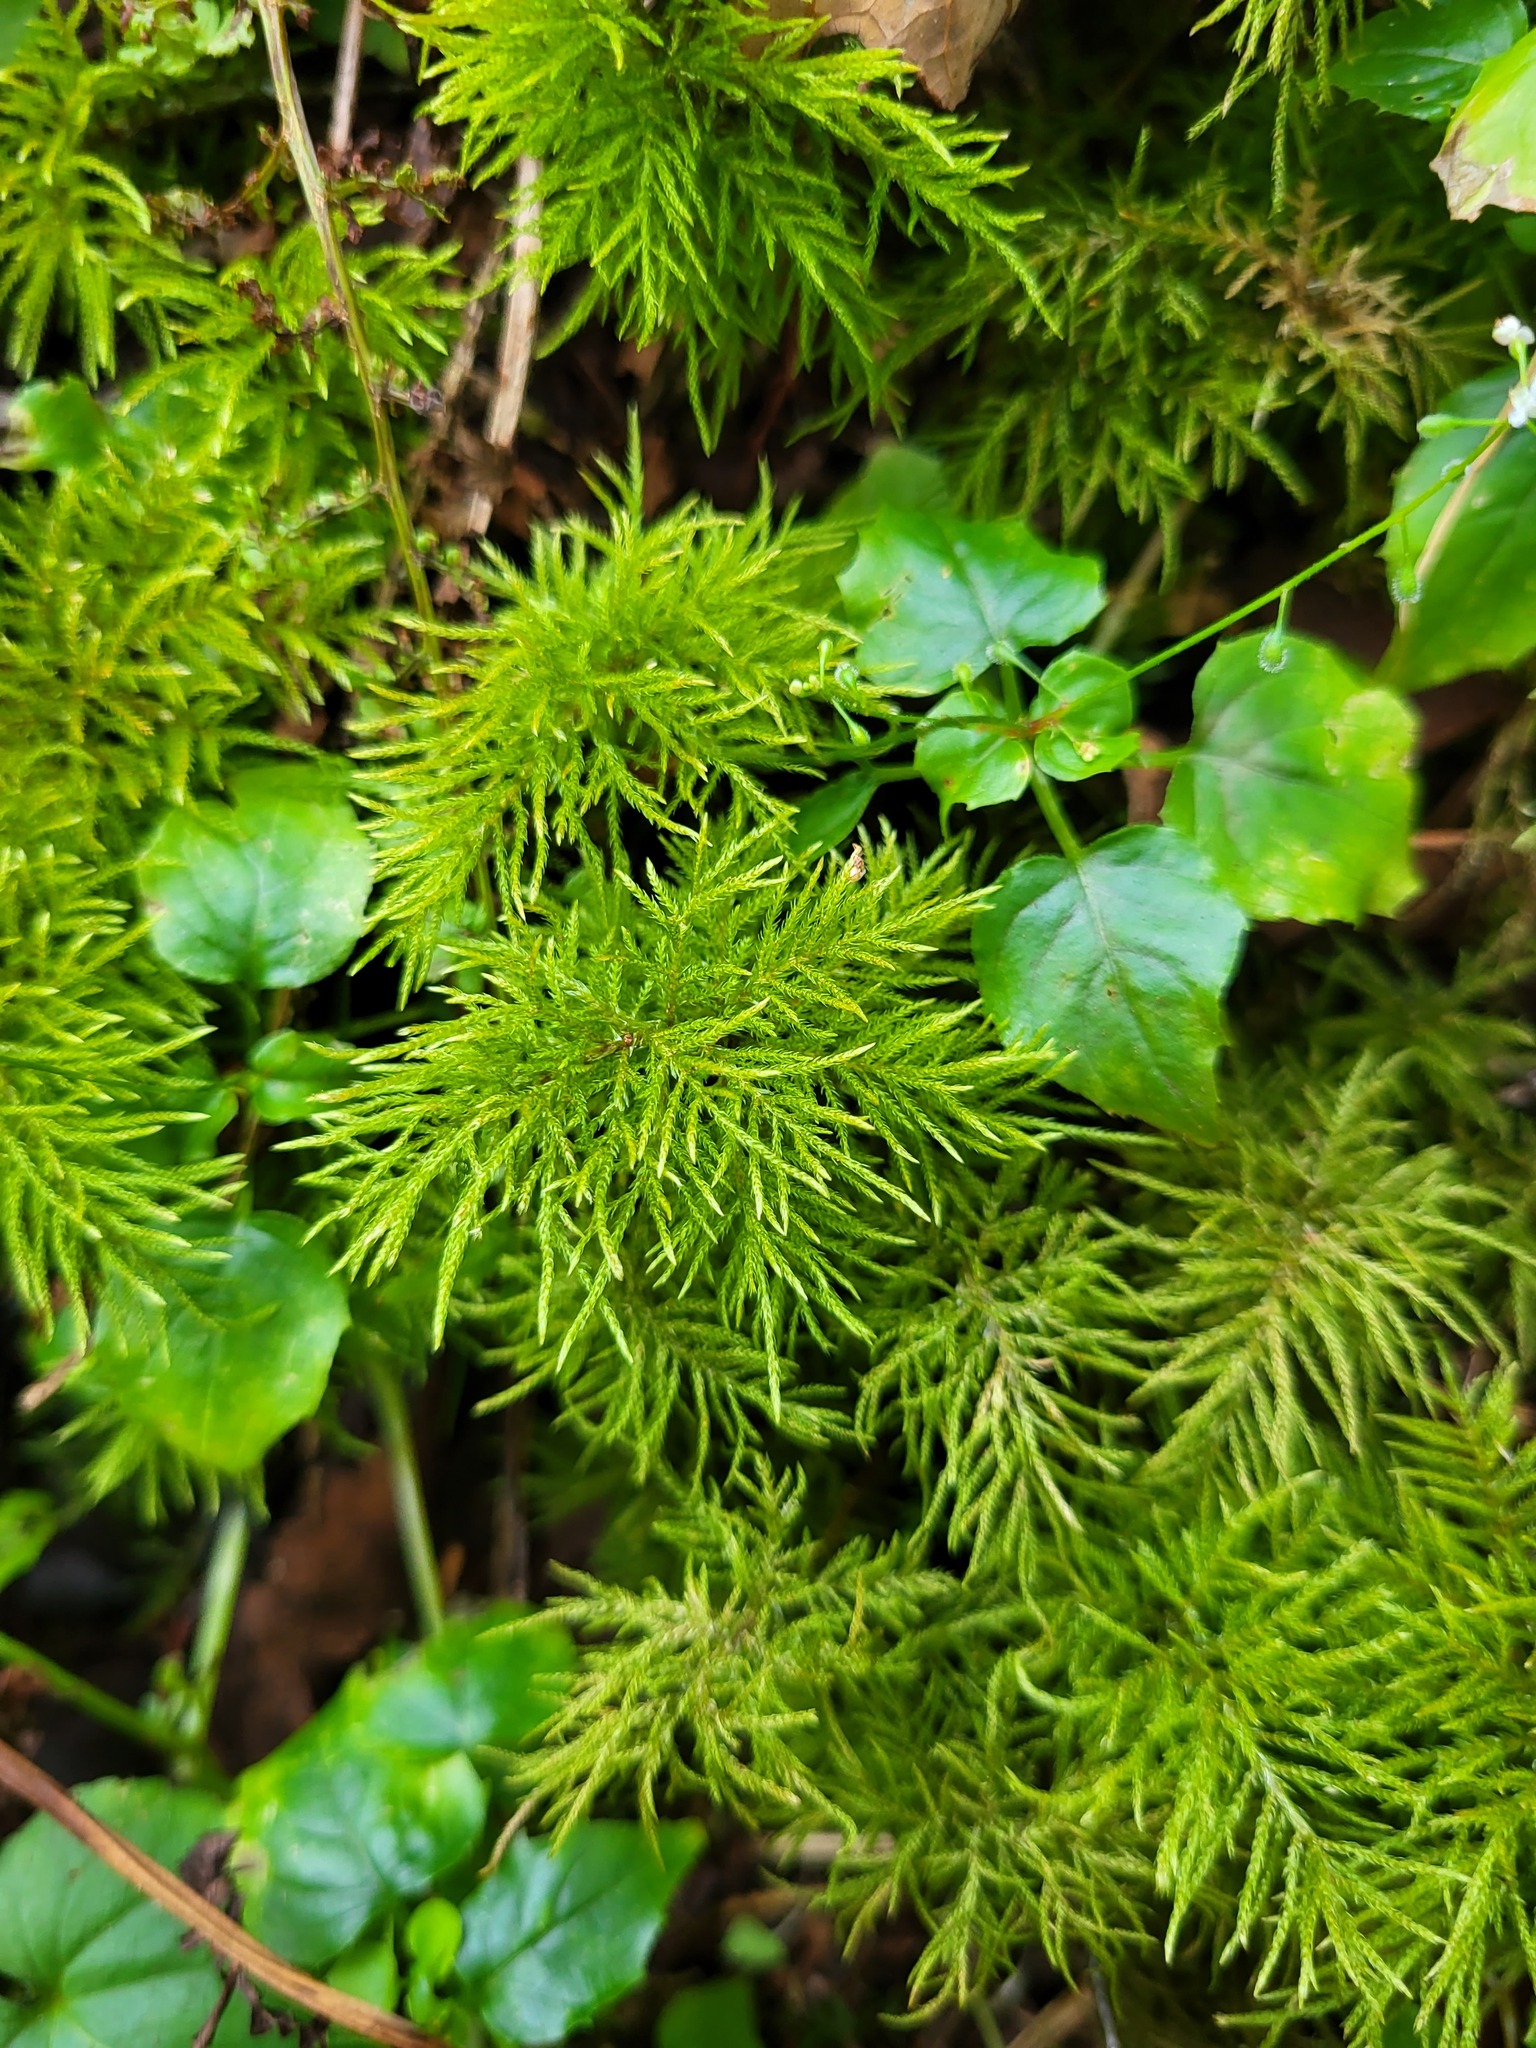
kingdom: Plantae
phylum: Bryophyta
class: Bryopsida
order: Hypnales
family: Climaciaceae
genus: Pleuroziopsis
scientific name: Pleuroziopsis ruthenica
